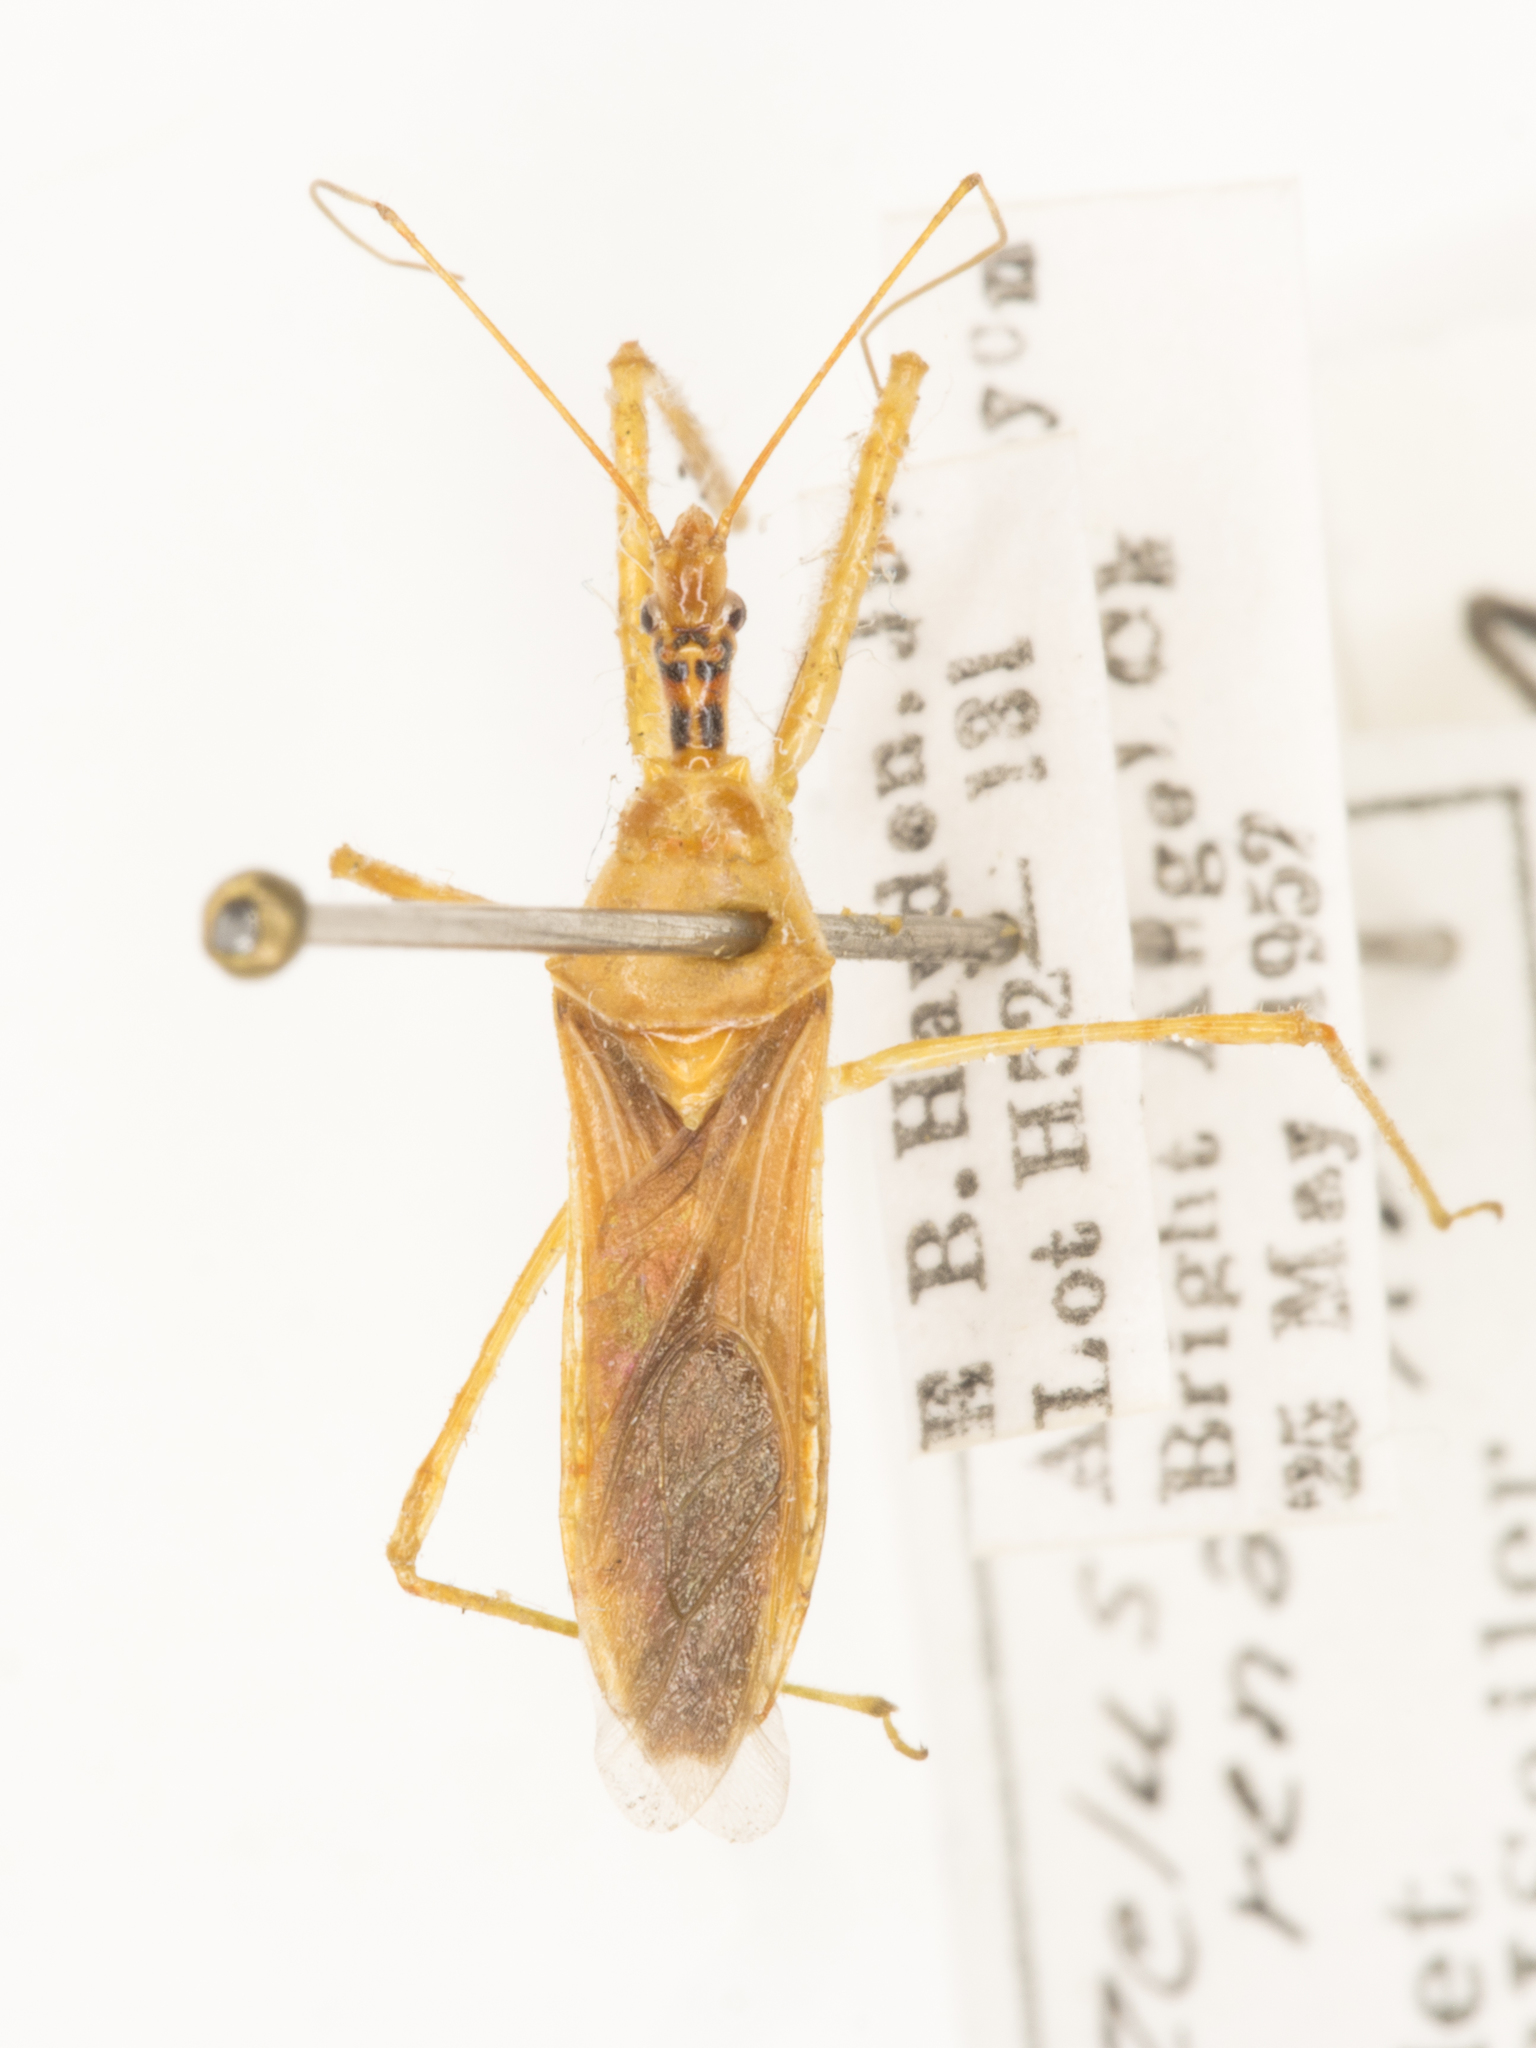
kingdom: Animalia
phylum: Arthropoda
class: Insecta
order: Hemiptera
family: Reduviidae
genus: Zelus
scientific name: Zelus renardii
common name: Assassin bug
